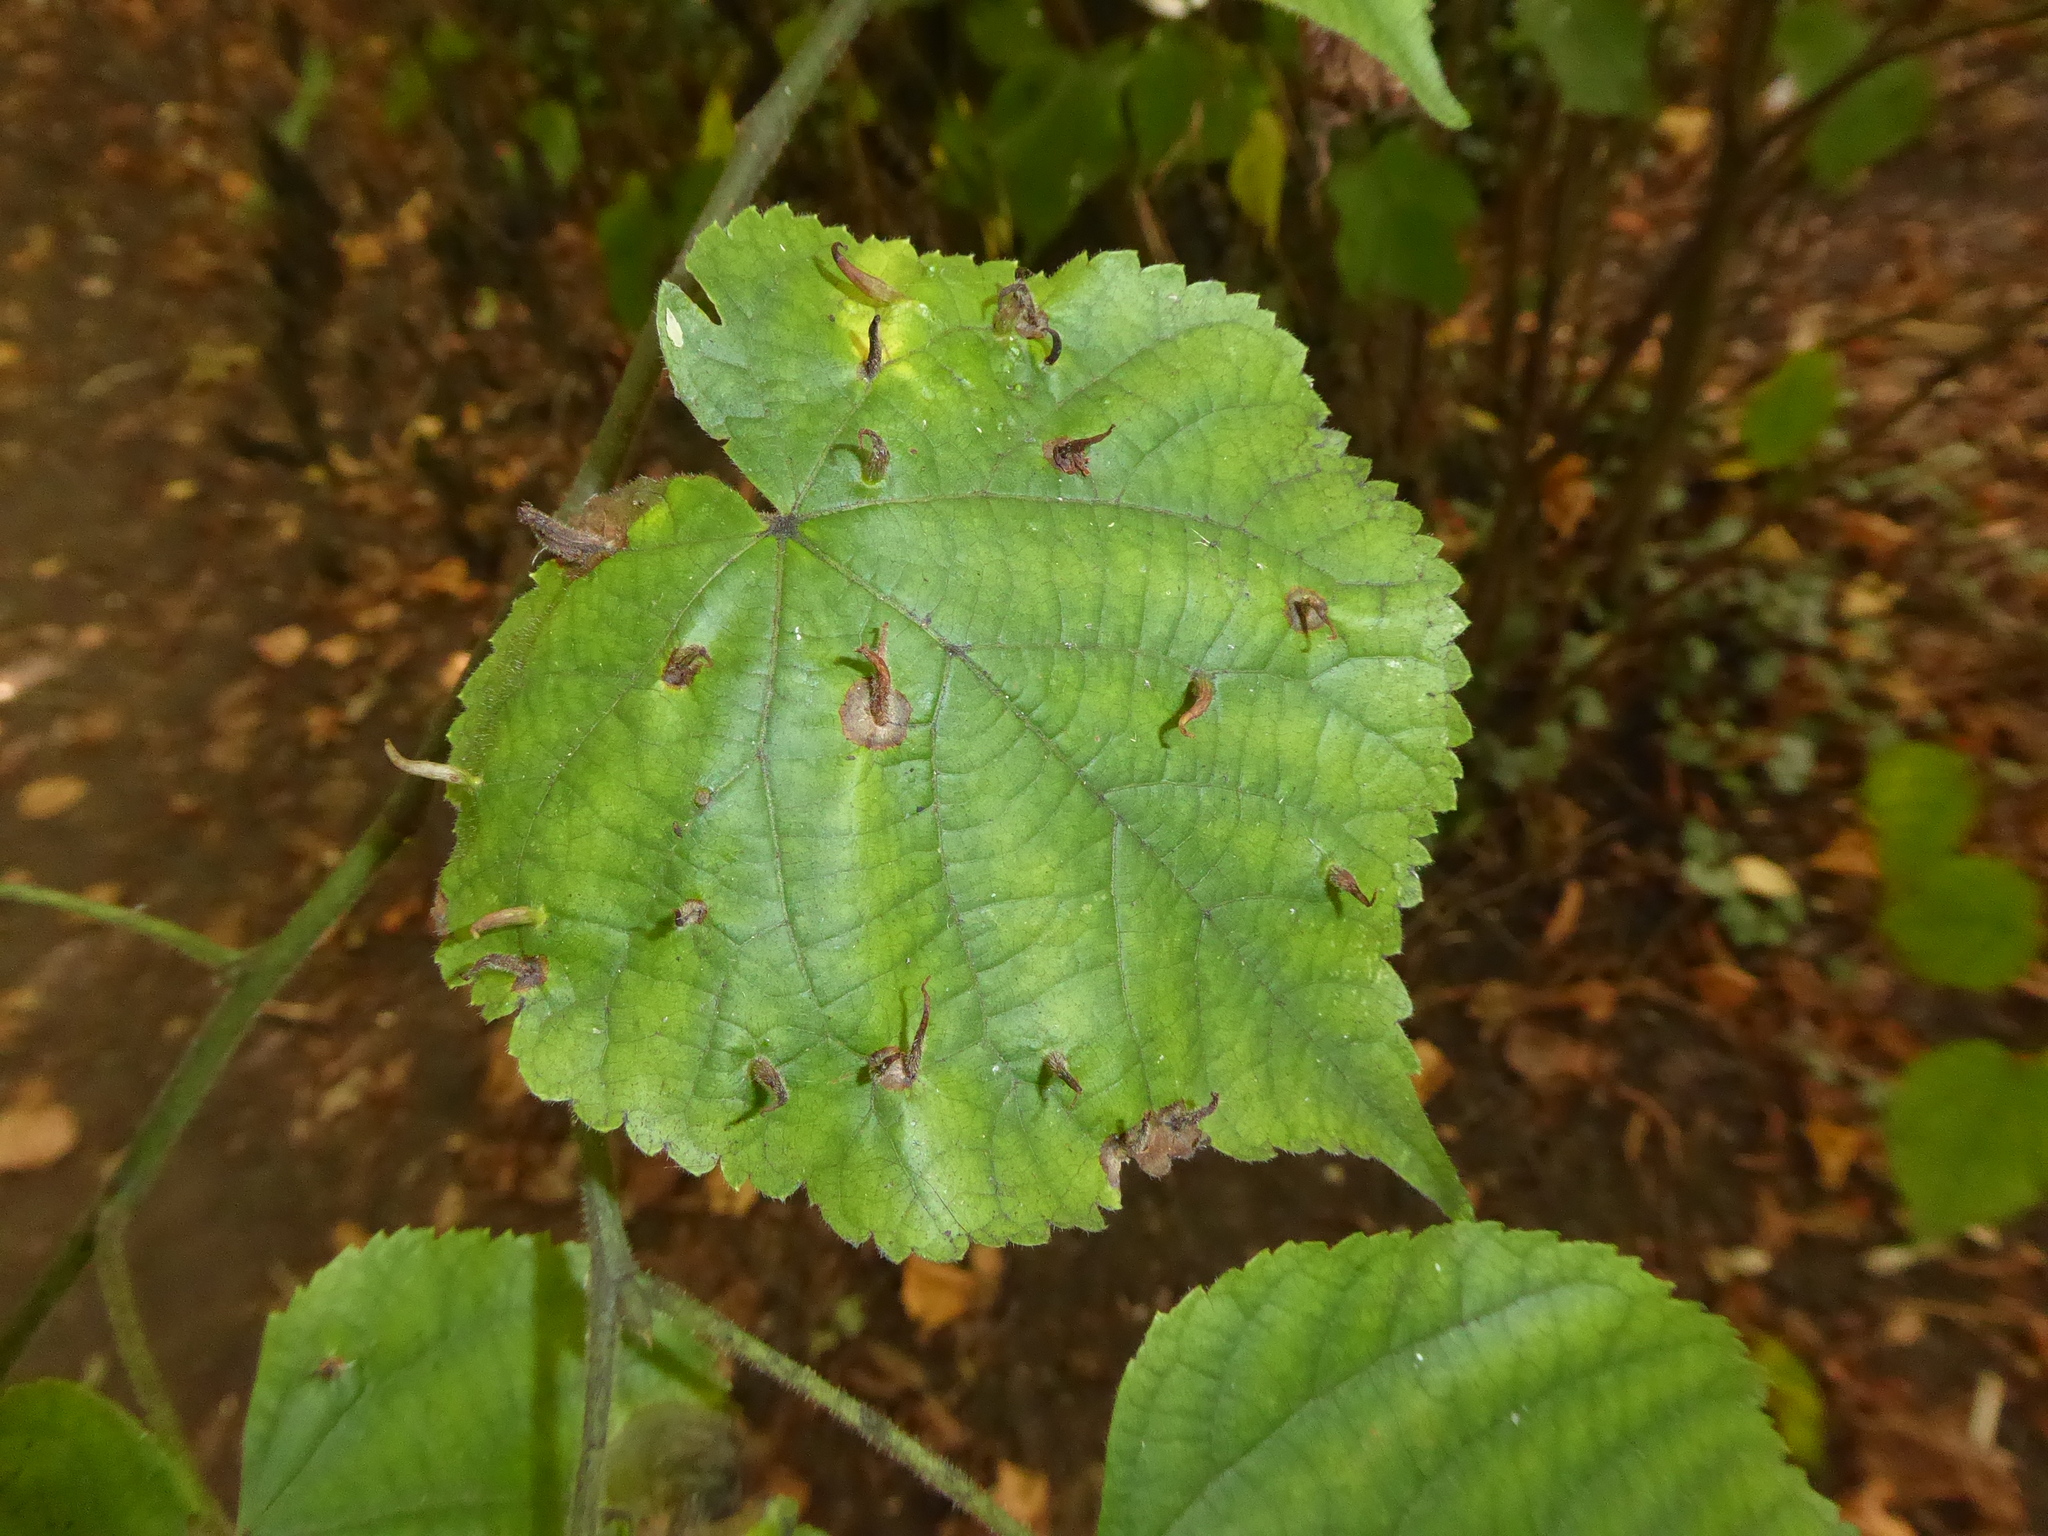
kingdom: Animalia
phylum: Arthropoda
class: Arachnida
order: Trombidiformes
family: Eriophyidae
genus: Eriophyes
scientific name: Eriophyes tiliae
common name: Red nail gall mite
